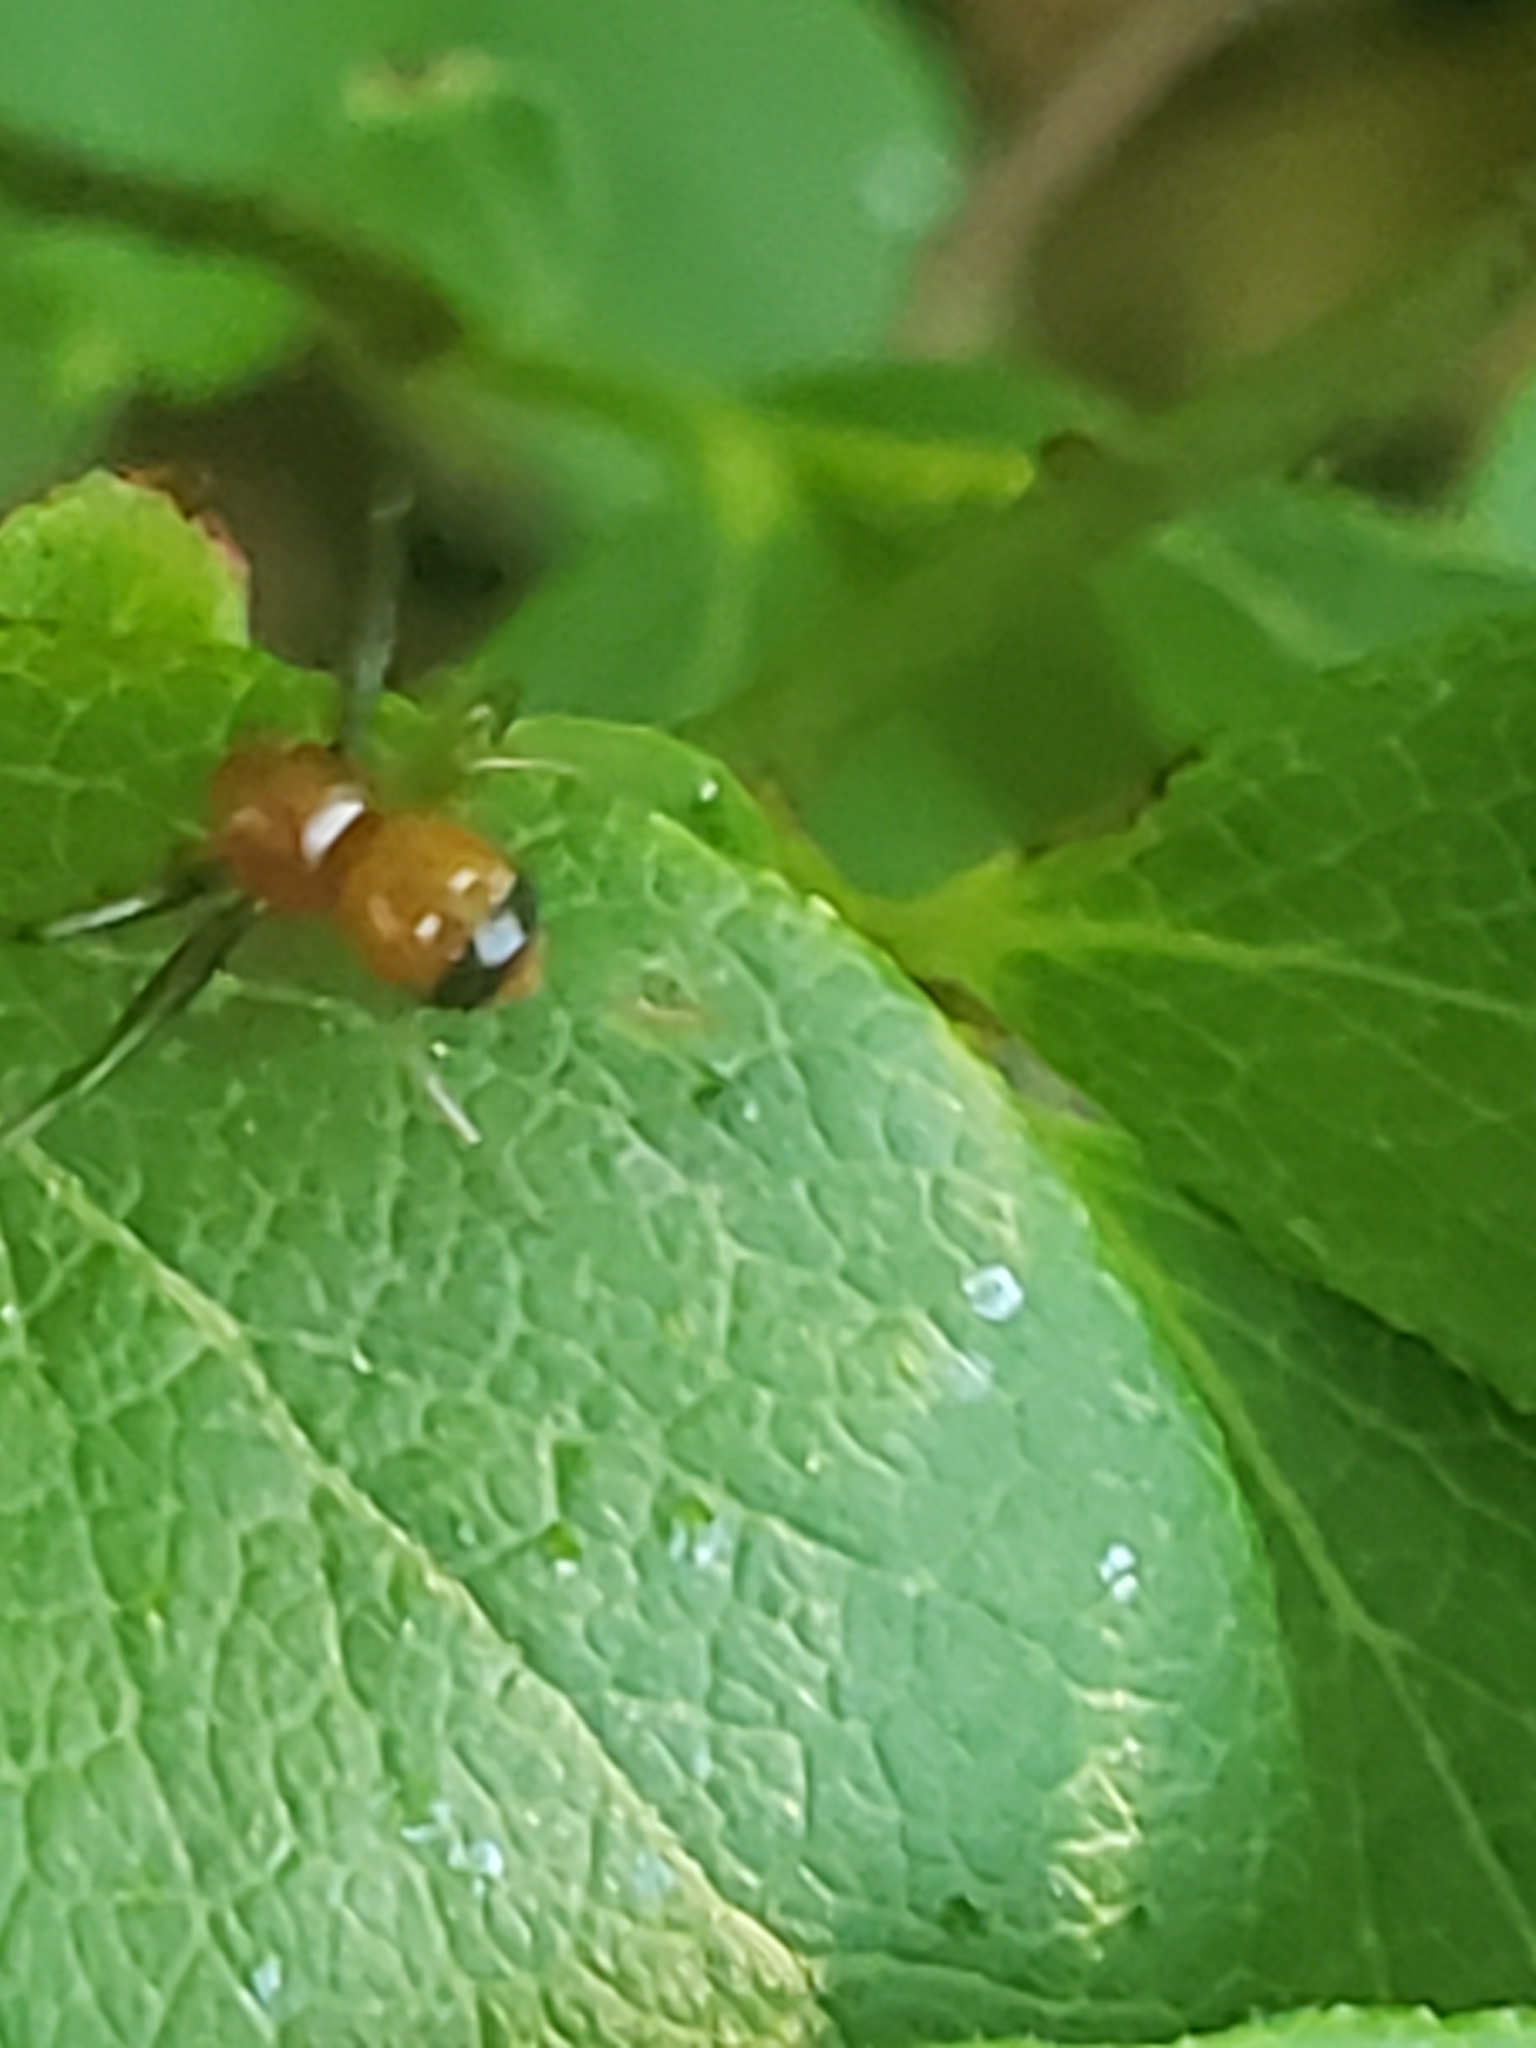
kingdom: Animalia
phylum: Arthropoda
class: Arachnida
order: Araneae
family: Thomisidae
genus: Synema
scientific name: Synema parvulum
